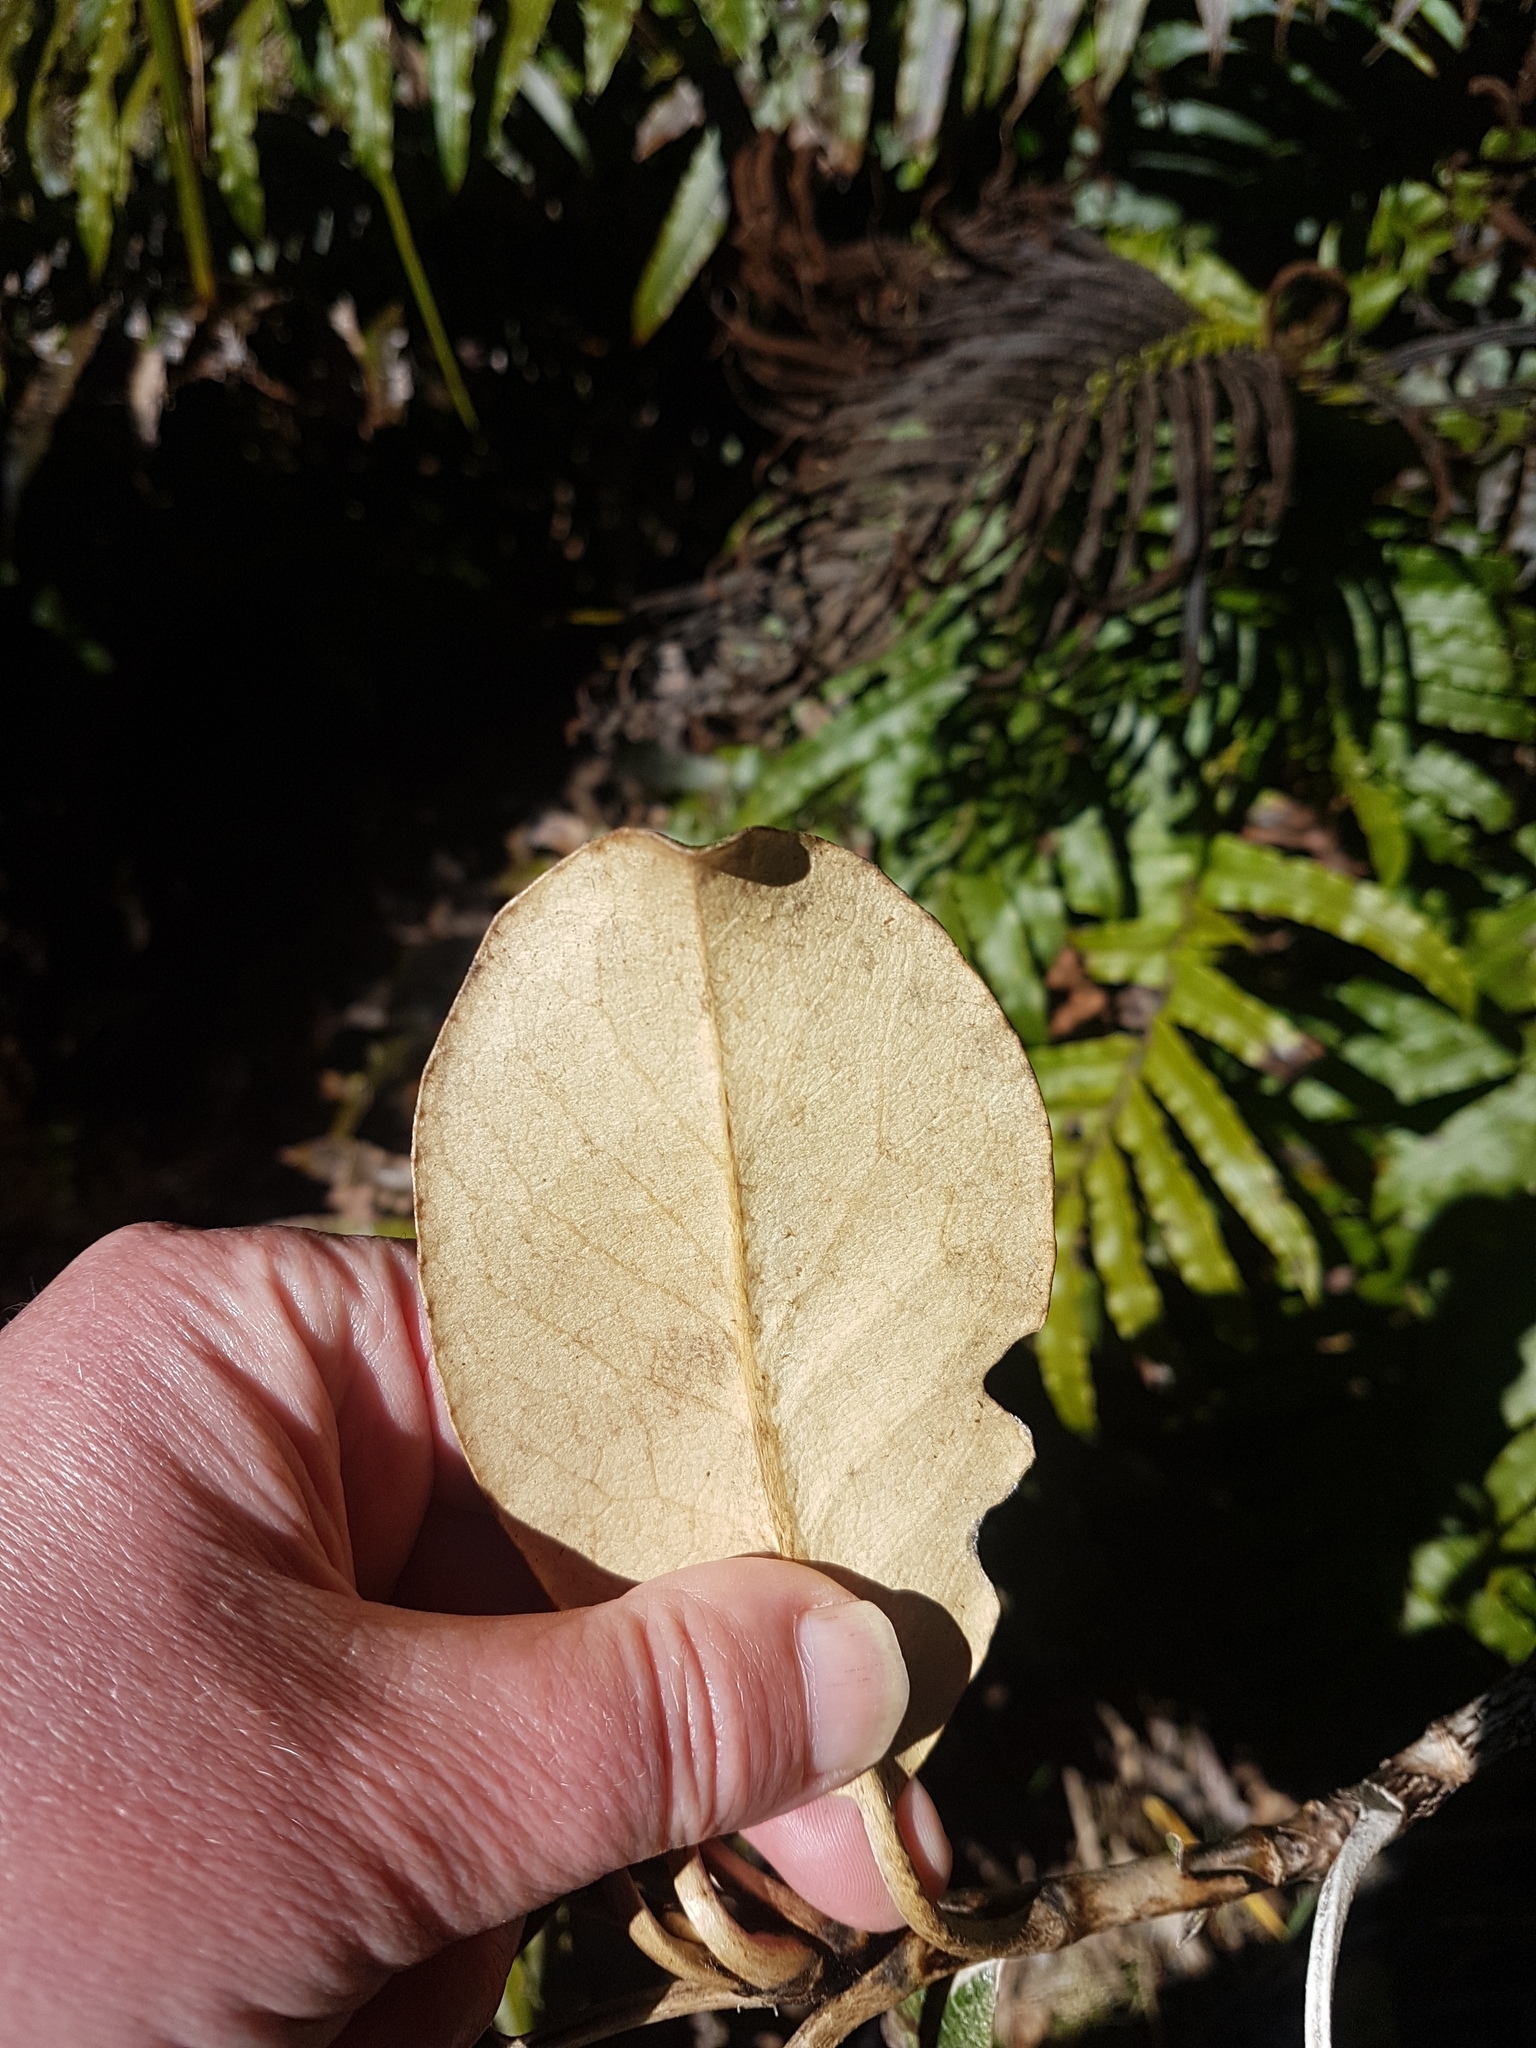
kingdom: Plantae
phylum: Tracheophyta
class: Magnoliopsida
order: Asterales
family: Asteraceae
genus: Brachyglottis
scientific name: Brachyglottis elaeagnifolia
